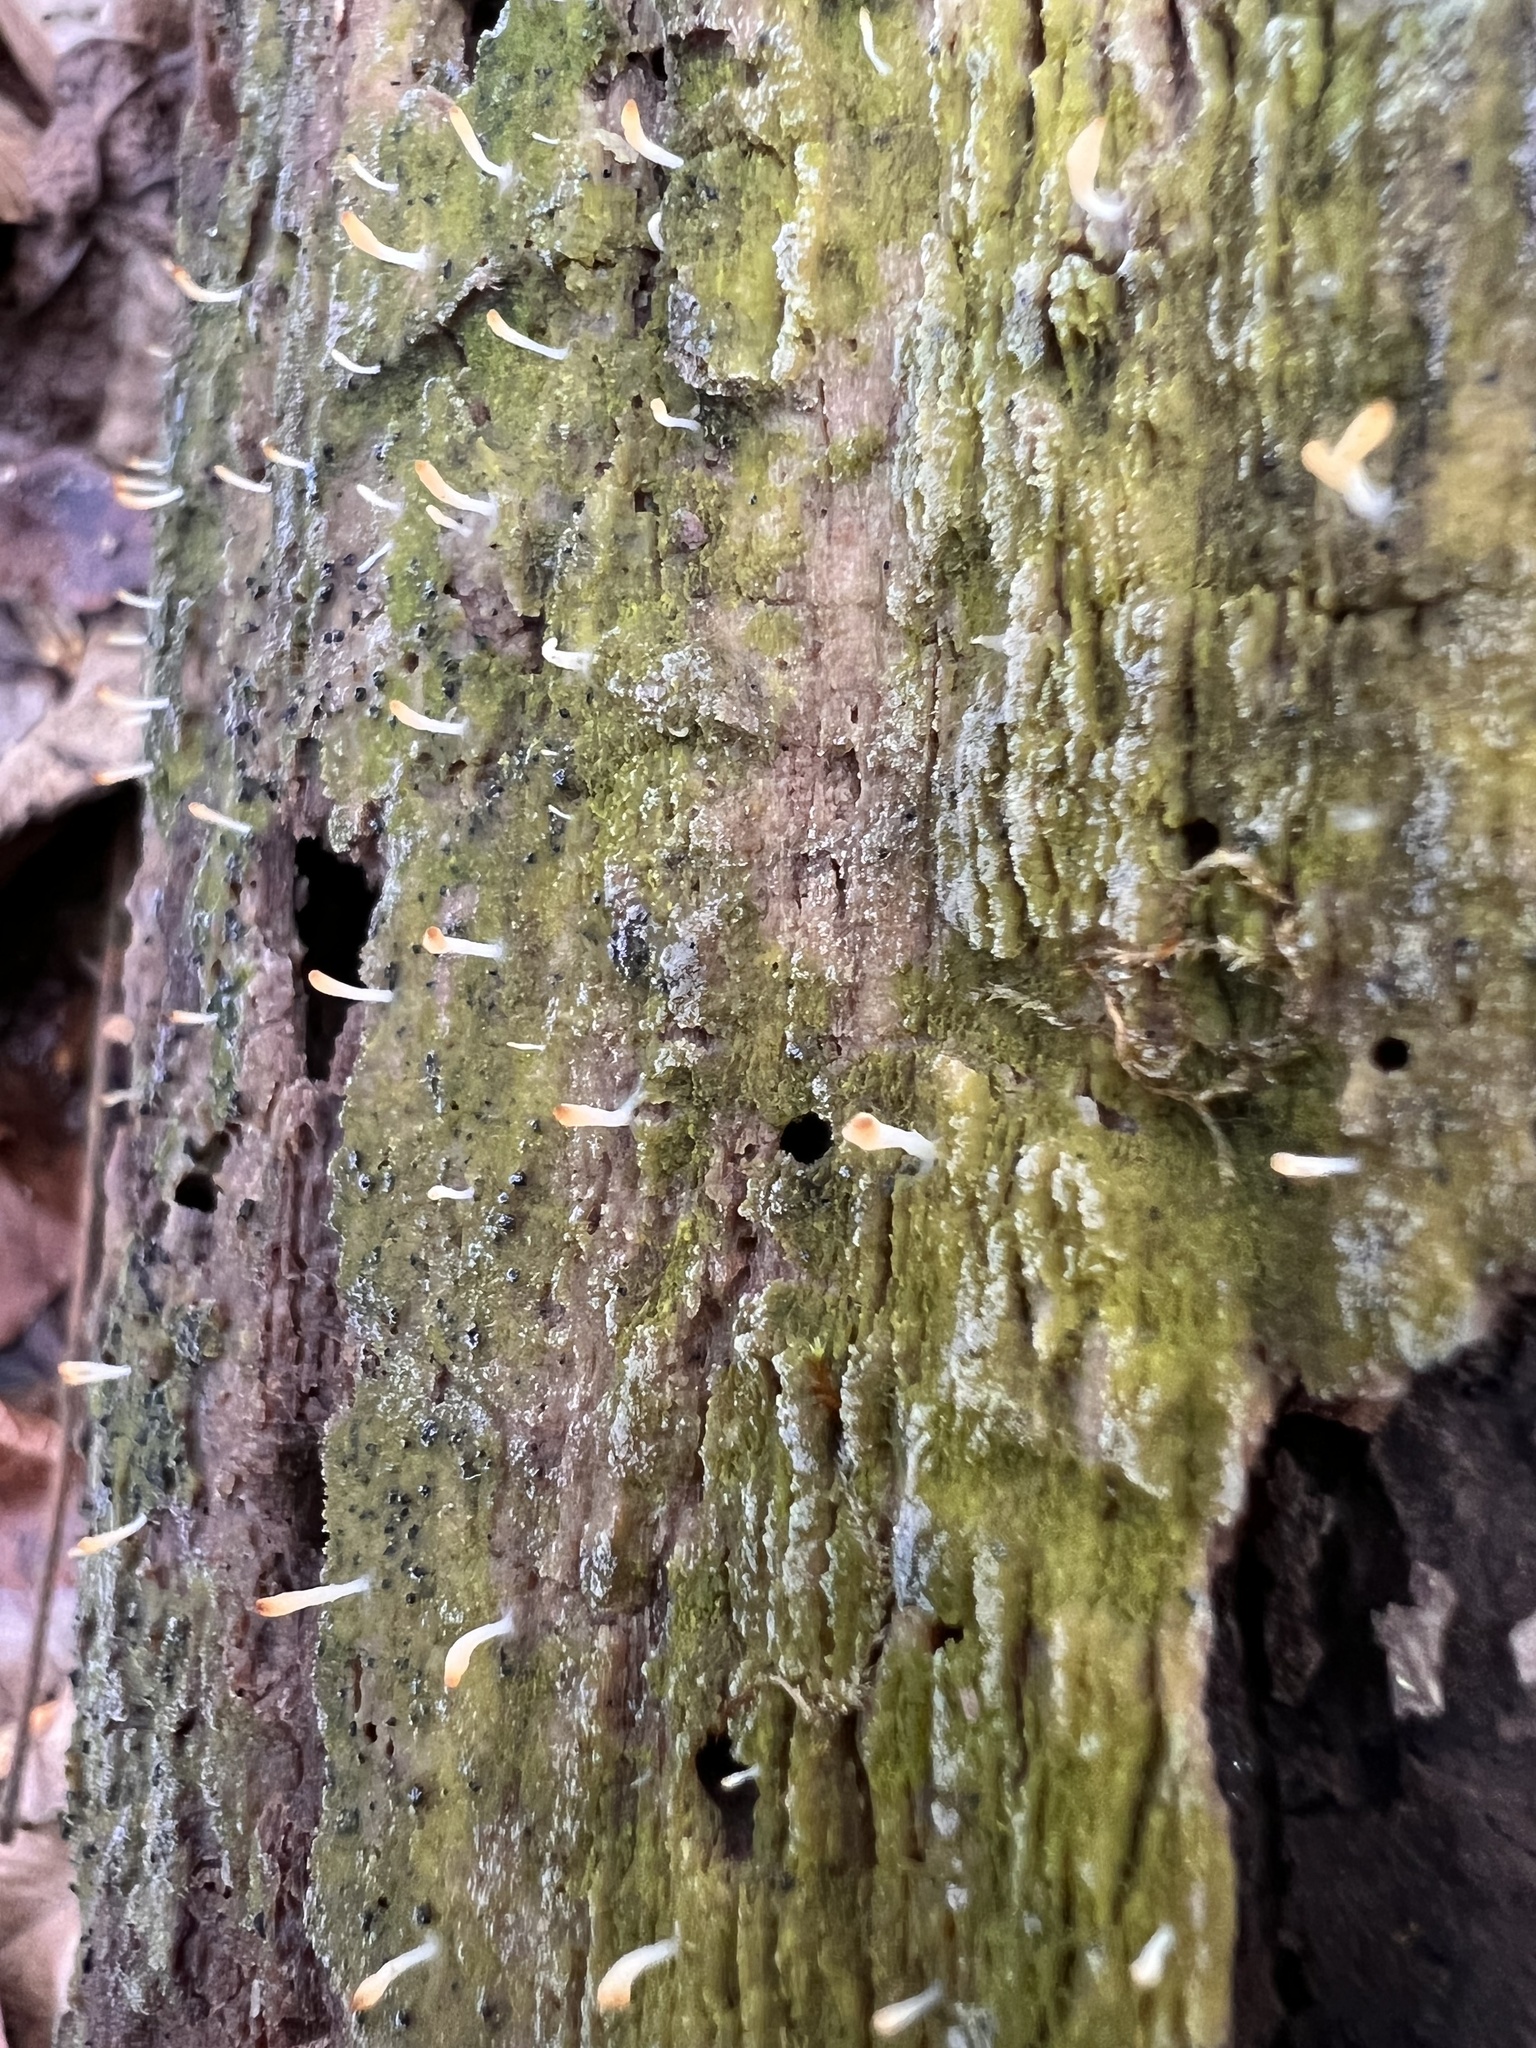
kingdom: Fungi
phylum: Basidiomycota
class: Agaricomycetes
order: Cantharellales
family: Hydnaceae
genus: Multiclavula
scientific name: Multiclavula mucida
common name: White green-algae coral
